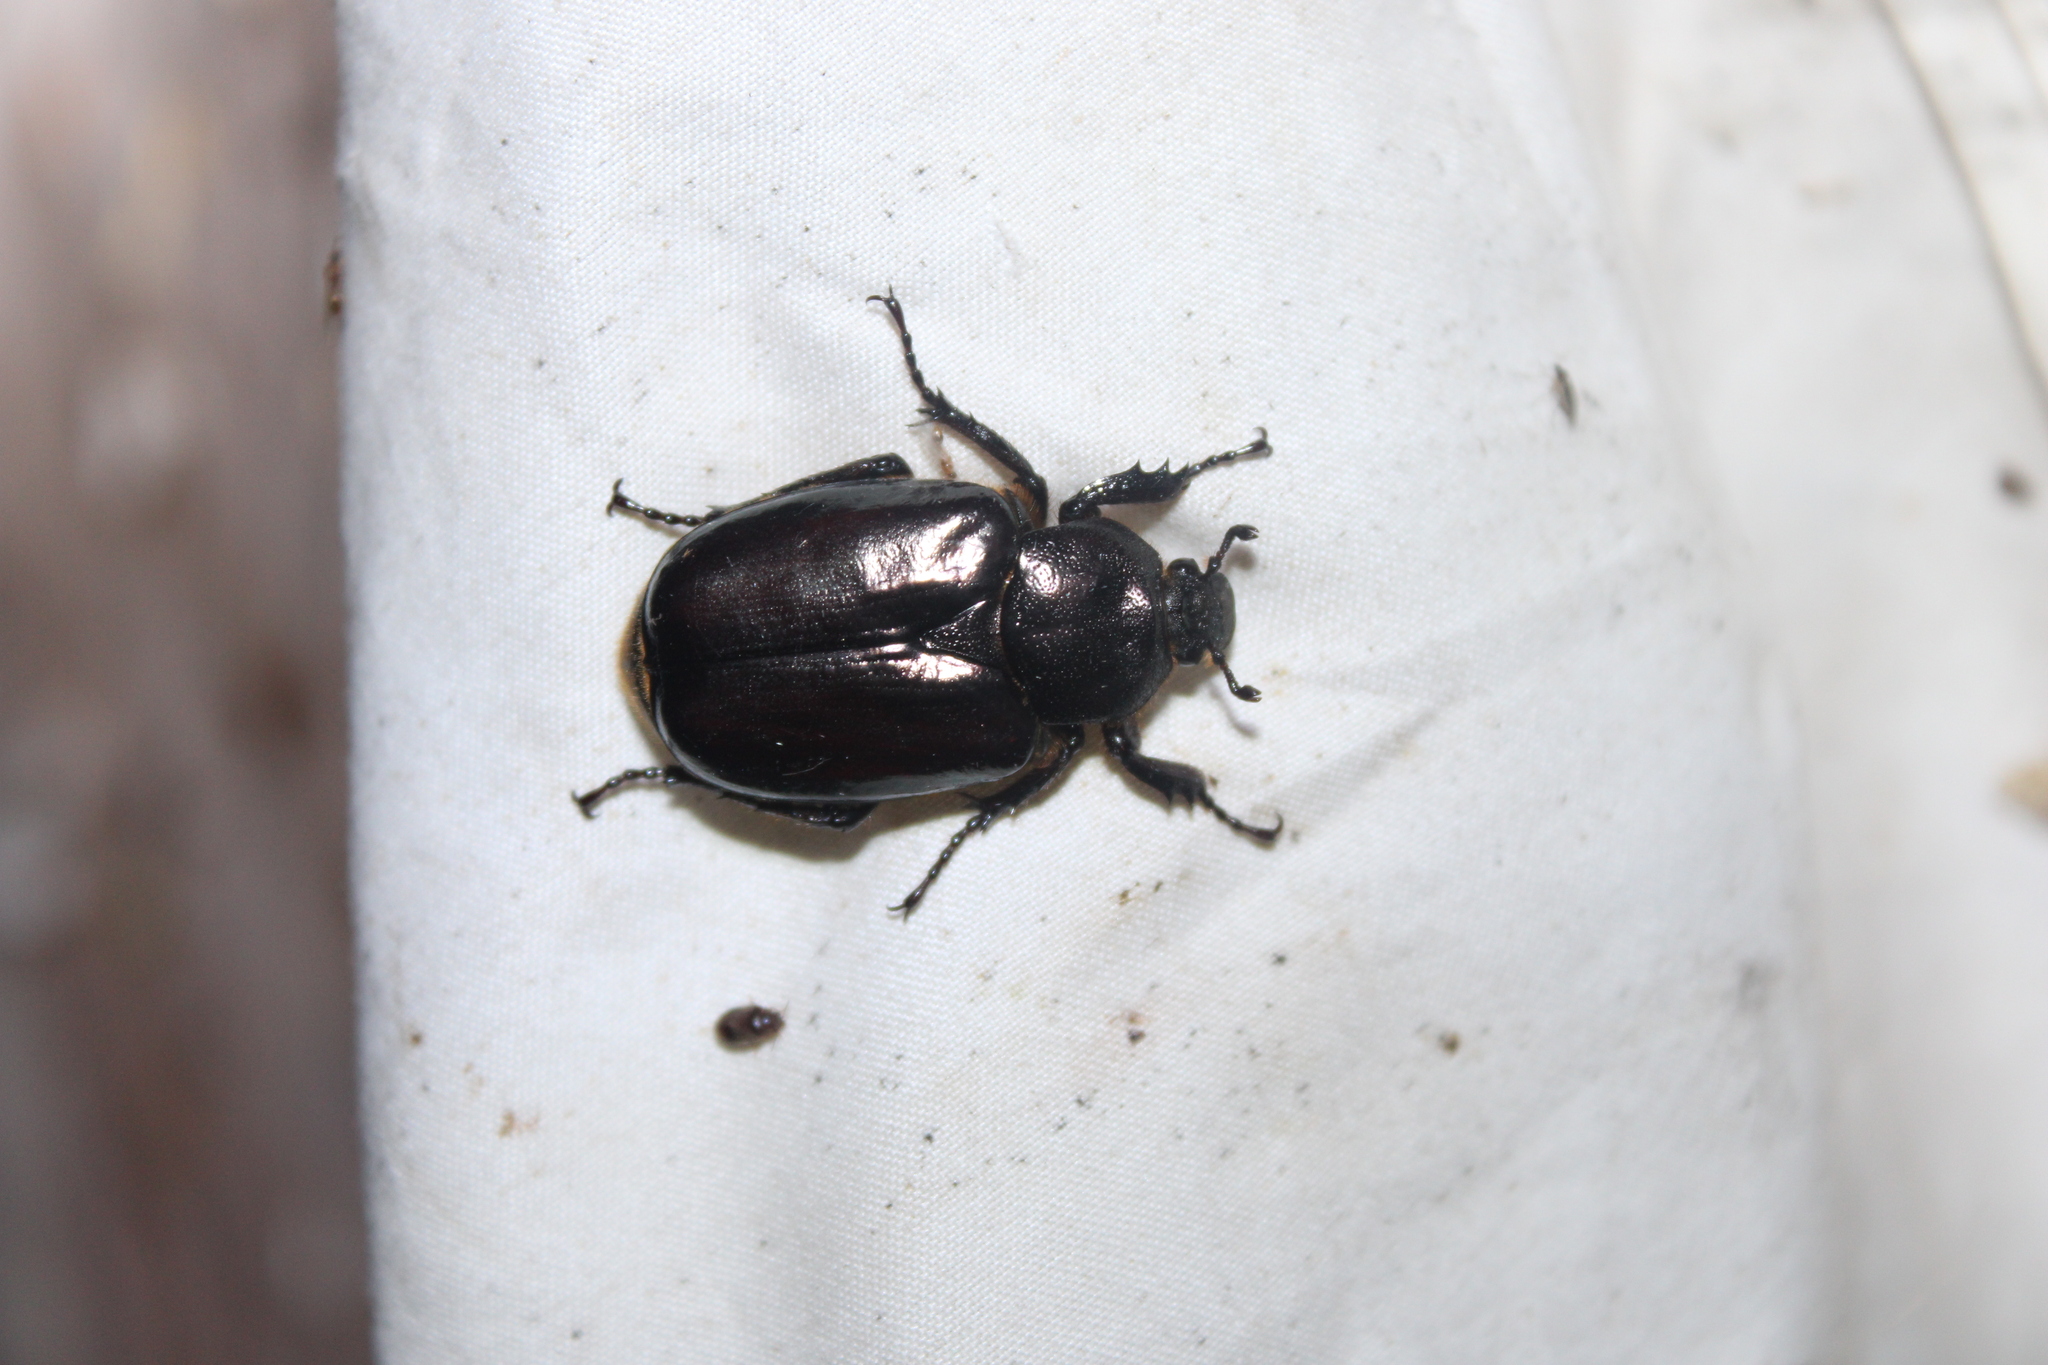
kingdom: Animalia
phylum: Arthropoda
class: Insecta
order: Coleoptera
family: Scarabaeidae
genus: Osmoderma
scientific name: Osmoderma eremicola
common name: Hermit flower beetle
